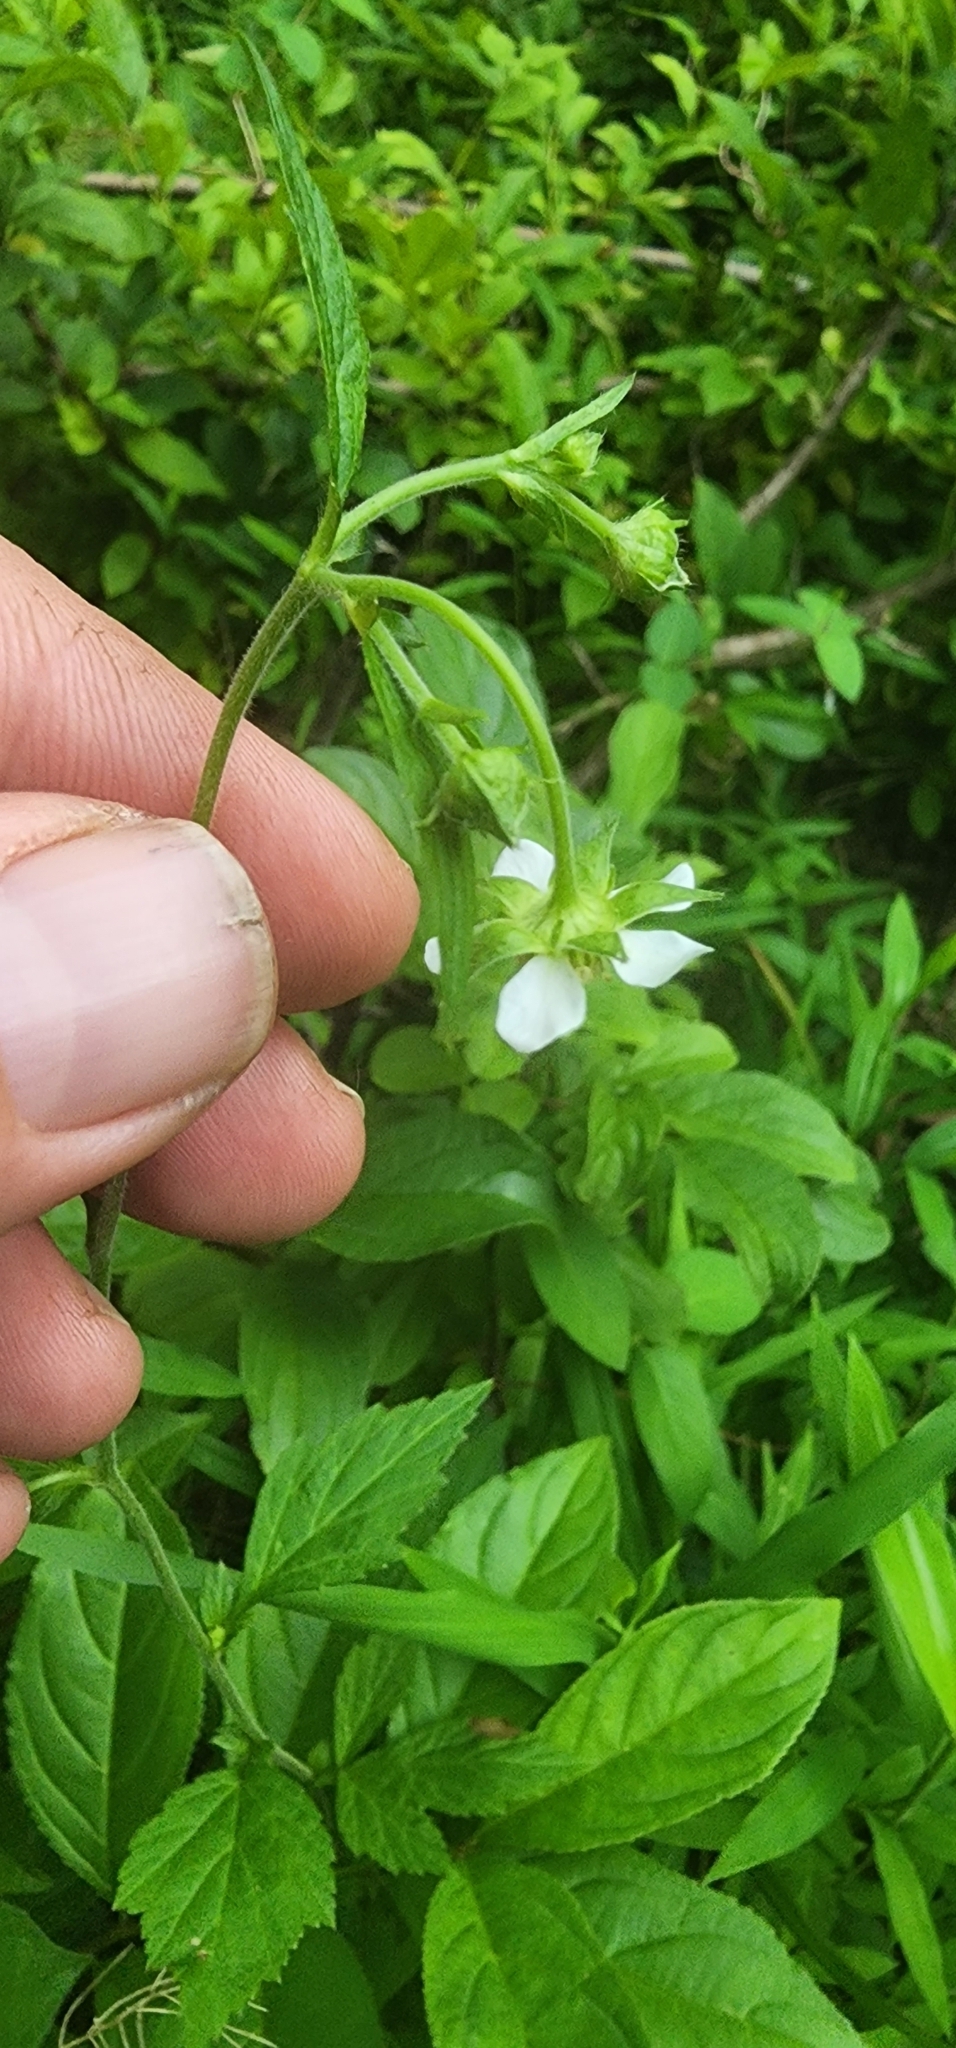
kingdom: Plantae
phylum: Tracheophyta
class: Magnoliopsida
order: Rosales
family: Rosaceae
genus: Geum
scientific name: Geum canadense
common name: White avens
